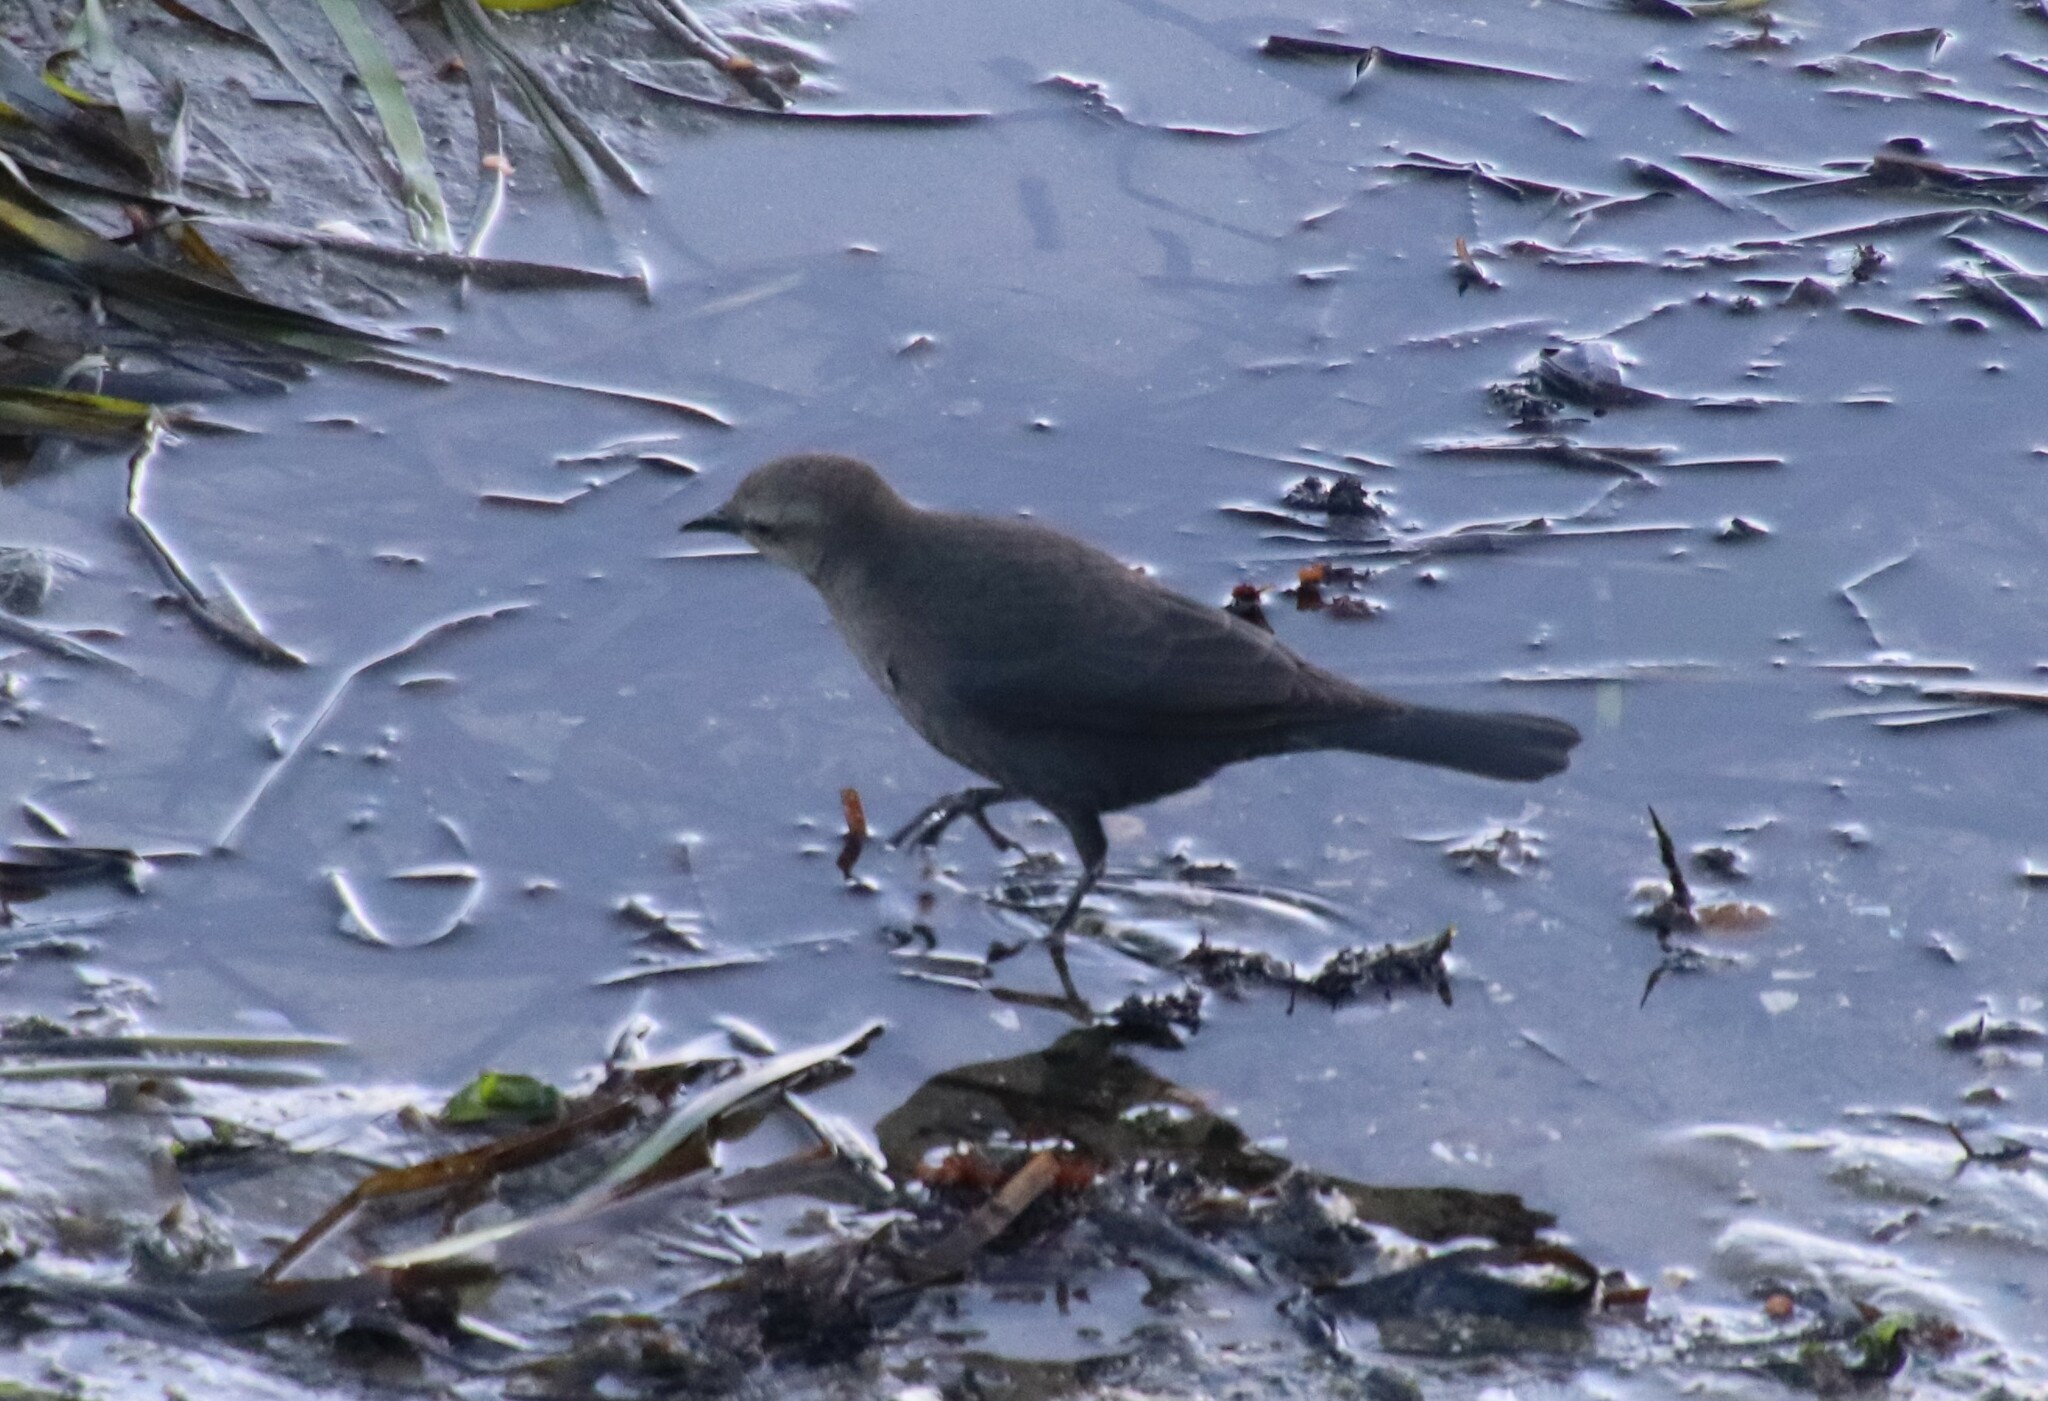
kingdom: Animalia
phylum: Chordata
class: Aves
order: Passeriformes
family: Icteridae
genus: Euphagus
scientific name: Euphagus cyanocephalus
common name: Brewer's blackbird
